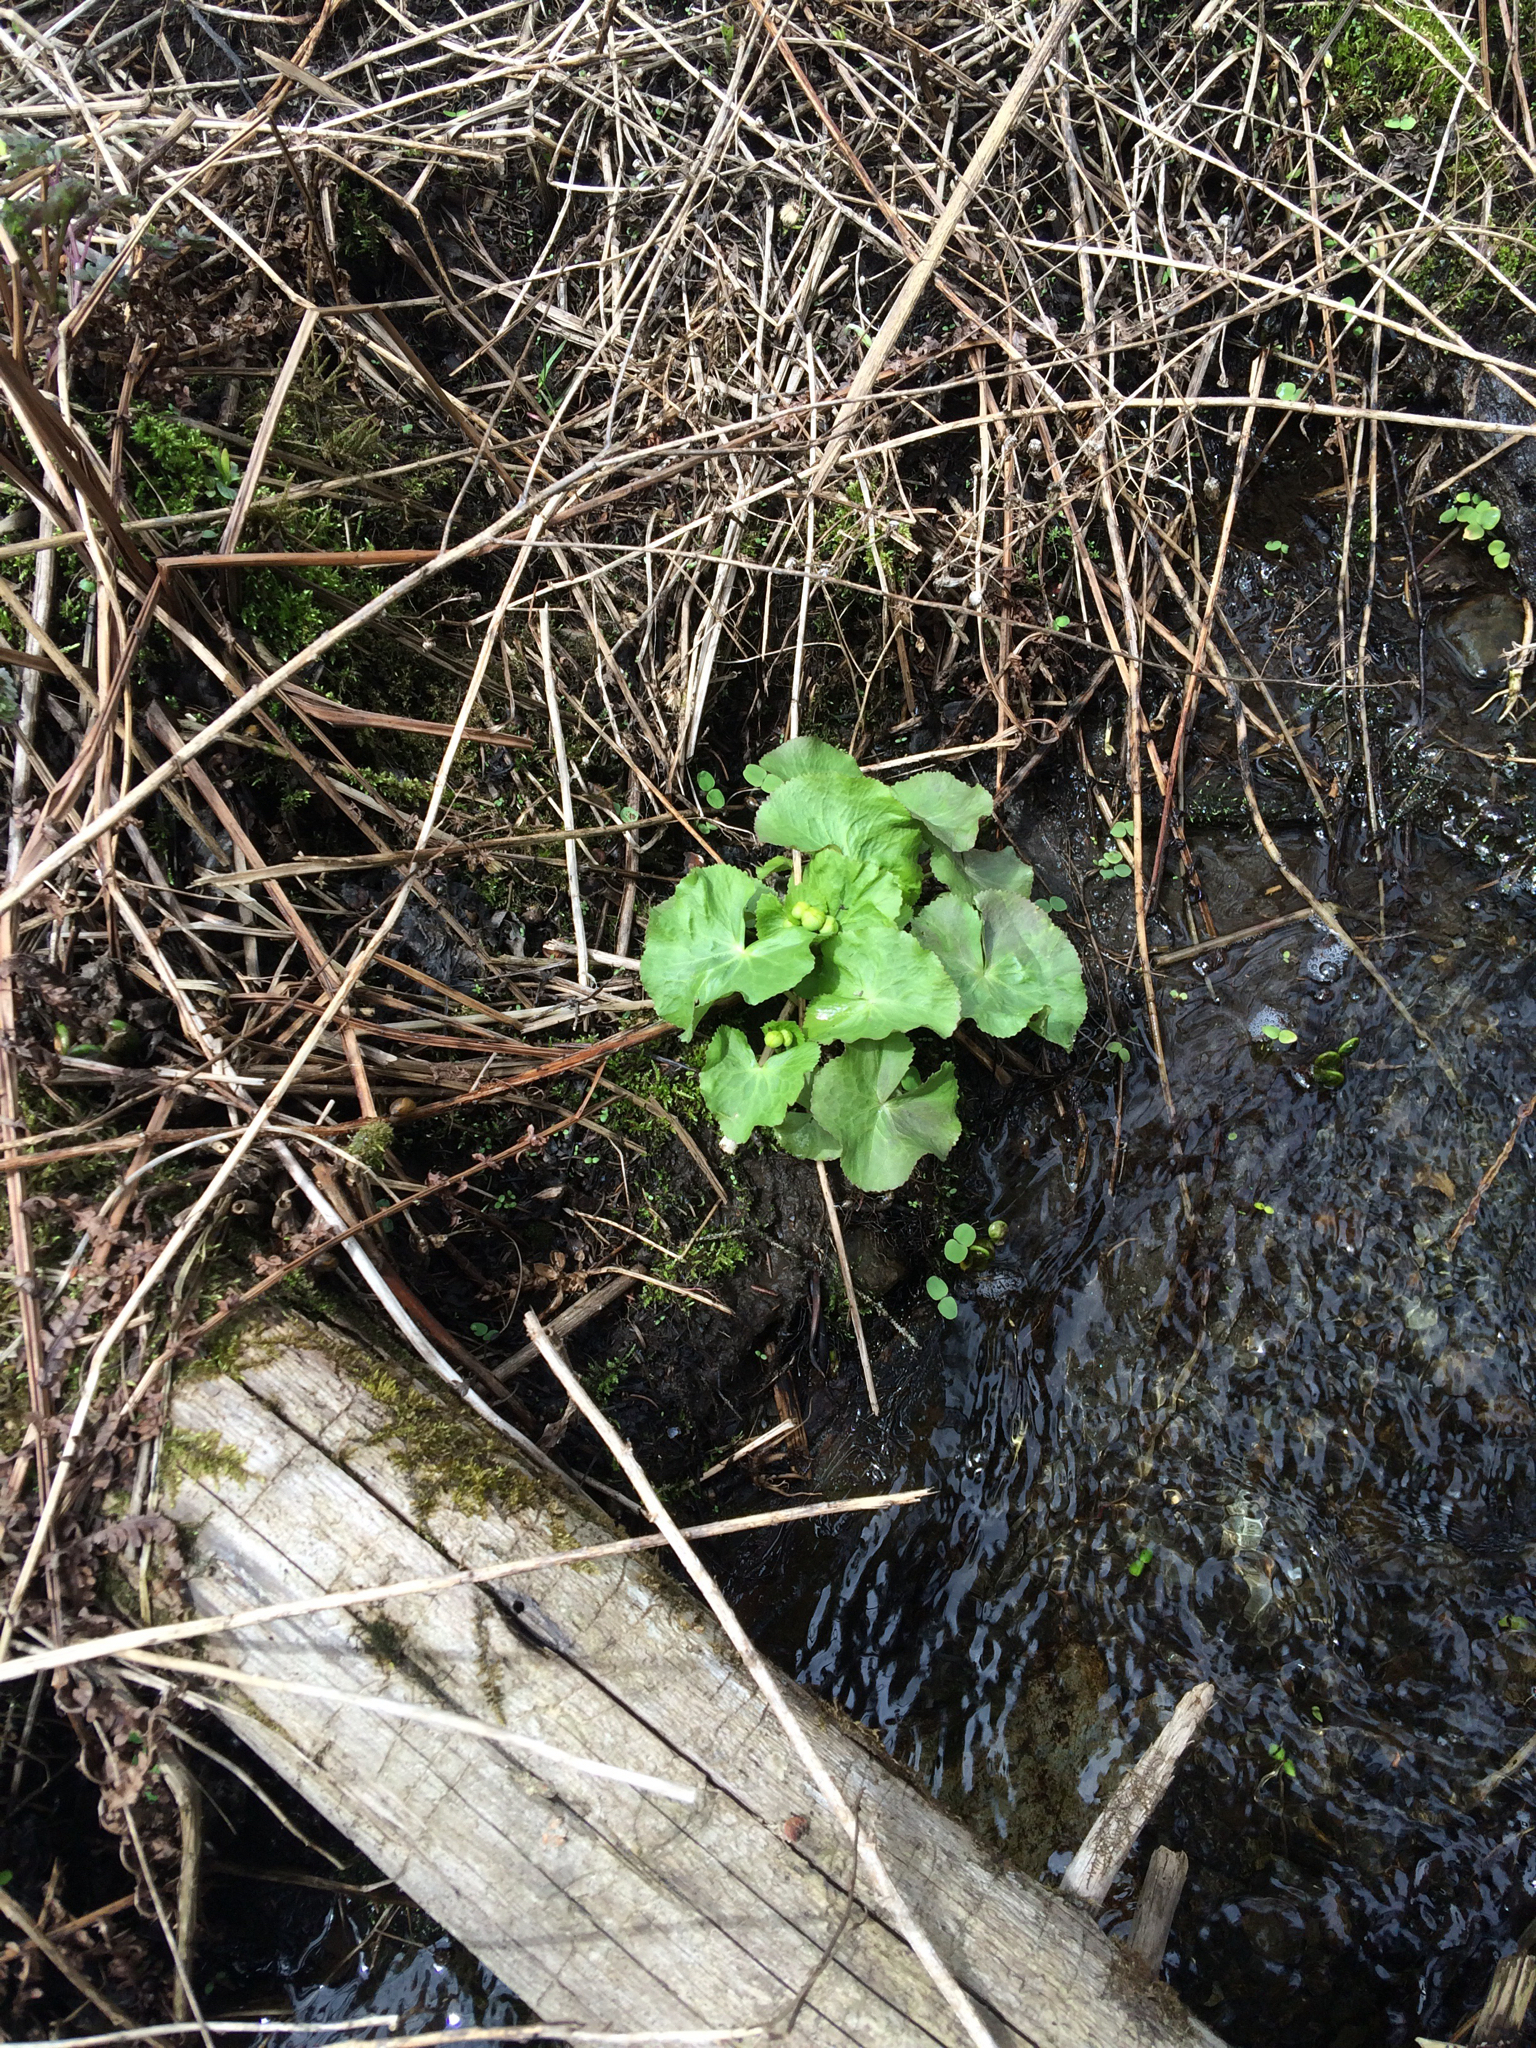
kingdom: Plantae
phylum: Tracheophyta
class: Magnoliopsida
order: Ranunculales
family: Ranunculaceae
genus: Caltha
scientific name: Caltha palustris
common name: Marsh marigold
